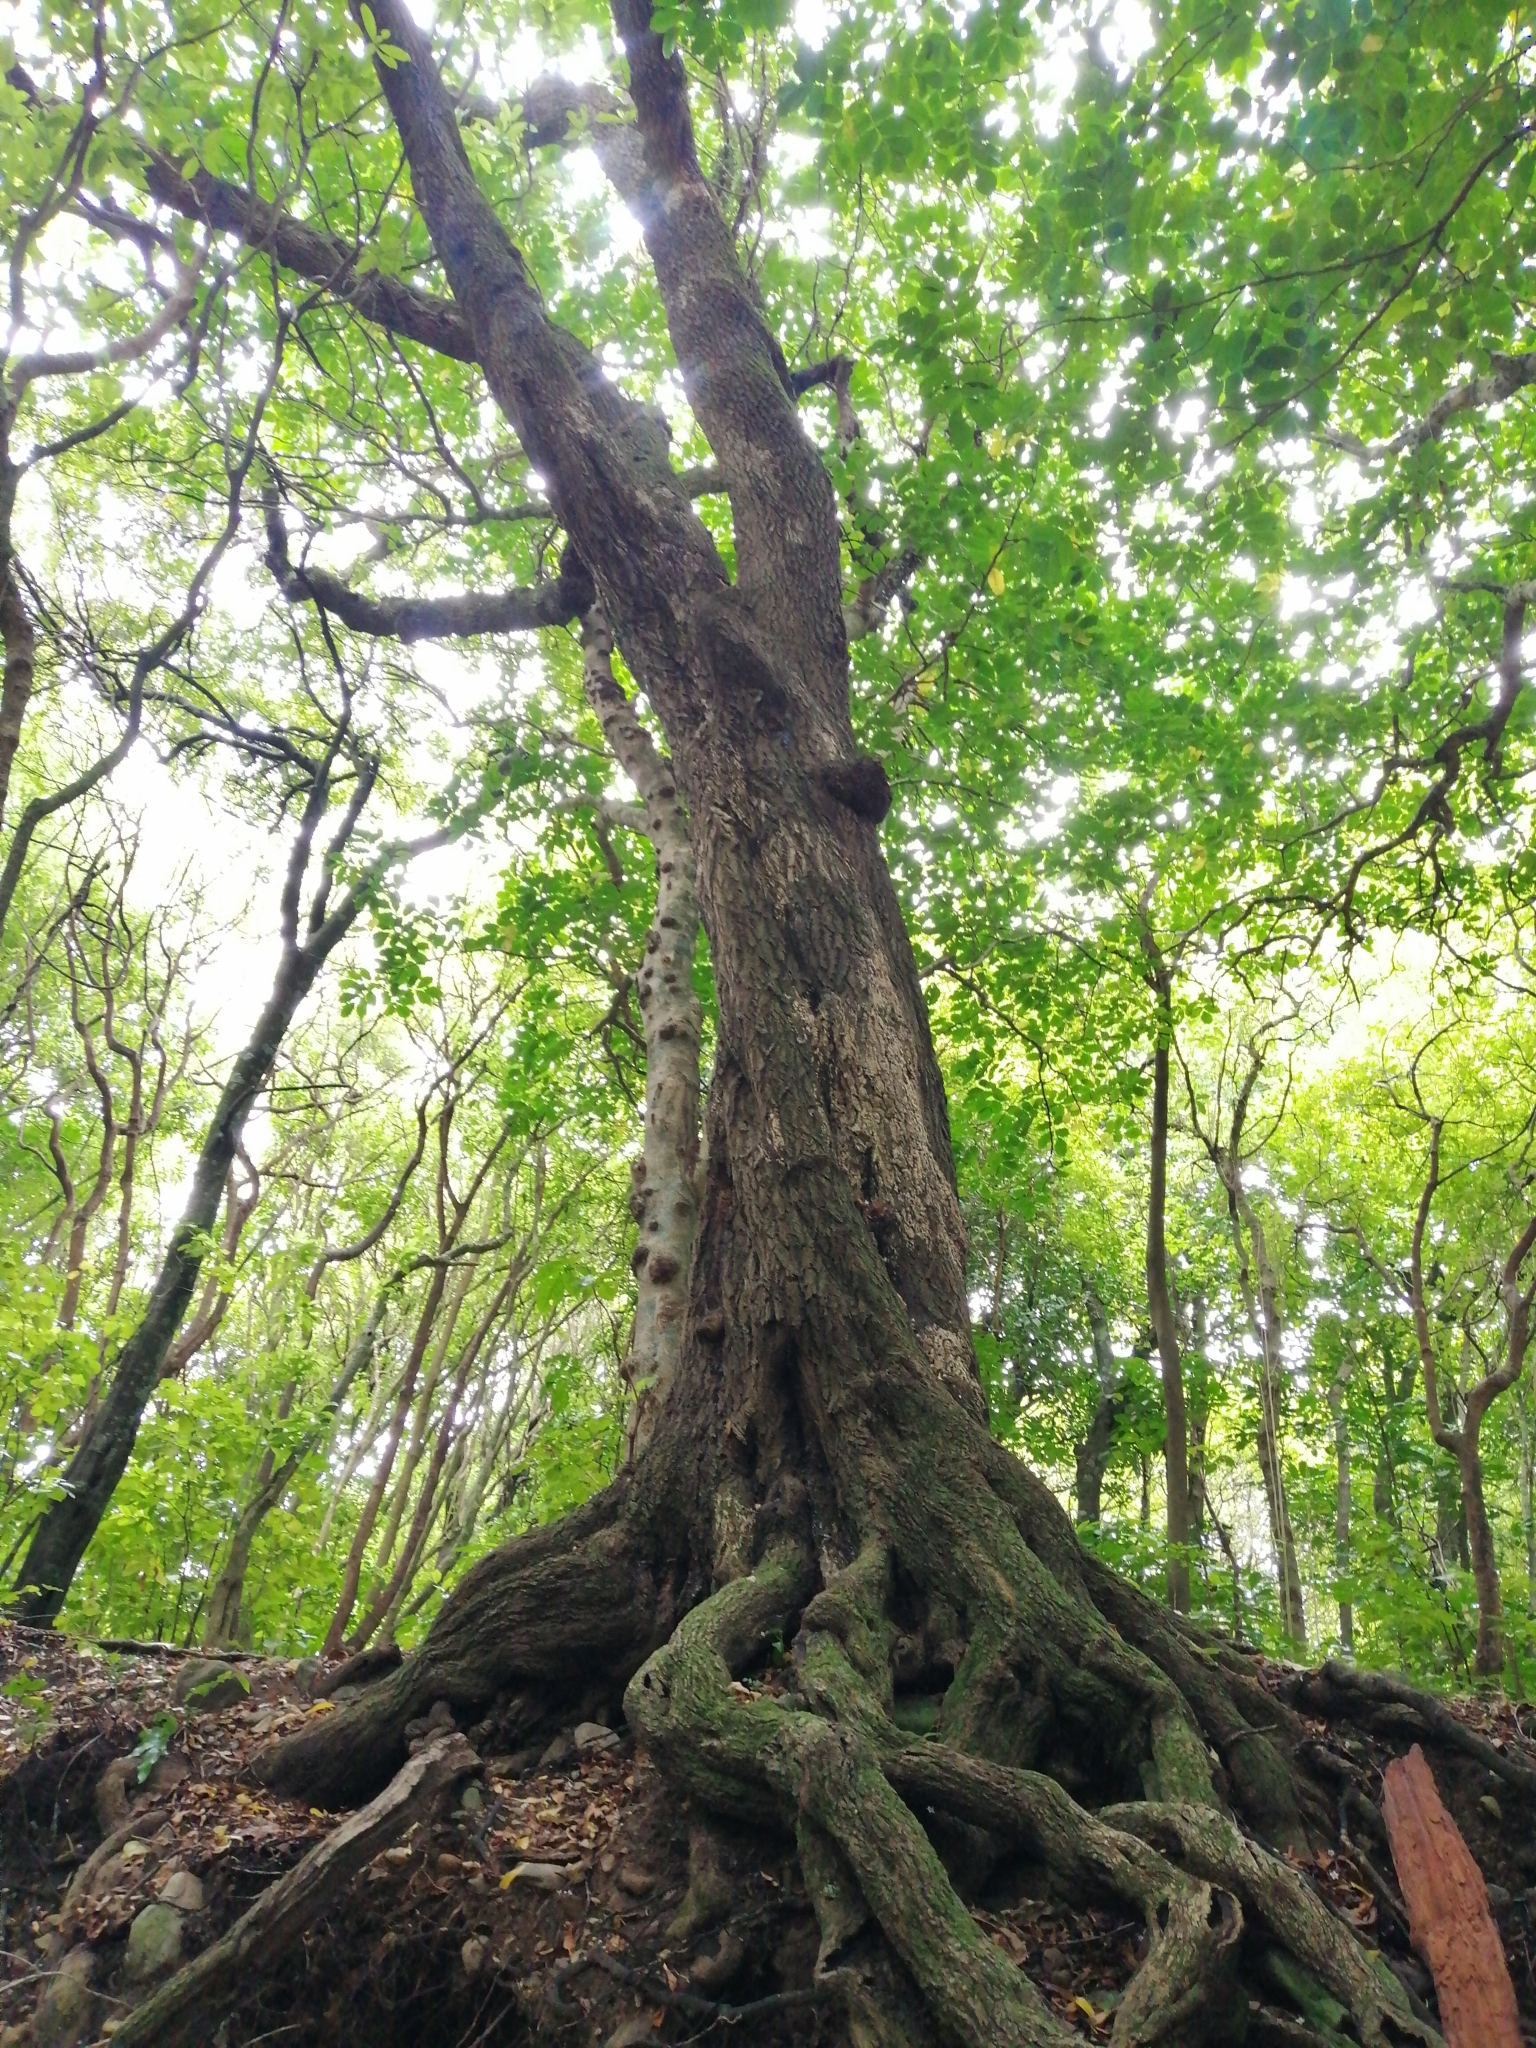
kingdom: Plantae
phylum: Tracheophyta
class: Magnoliopsida
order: Lamiales
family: Scrophulariaceae
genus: Myoporum
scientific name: Myoporum laetum
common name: Ngaio tree
